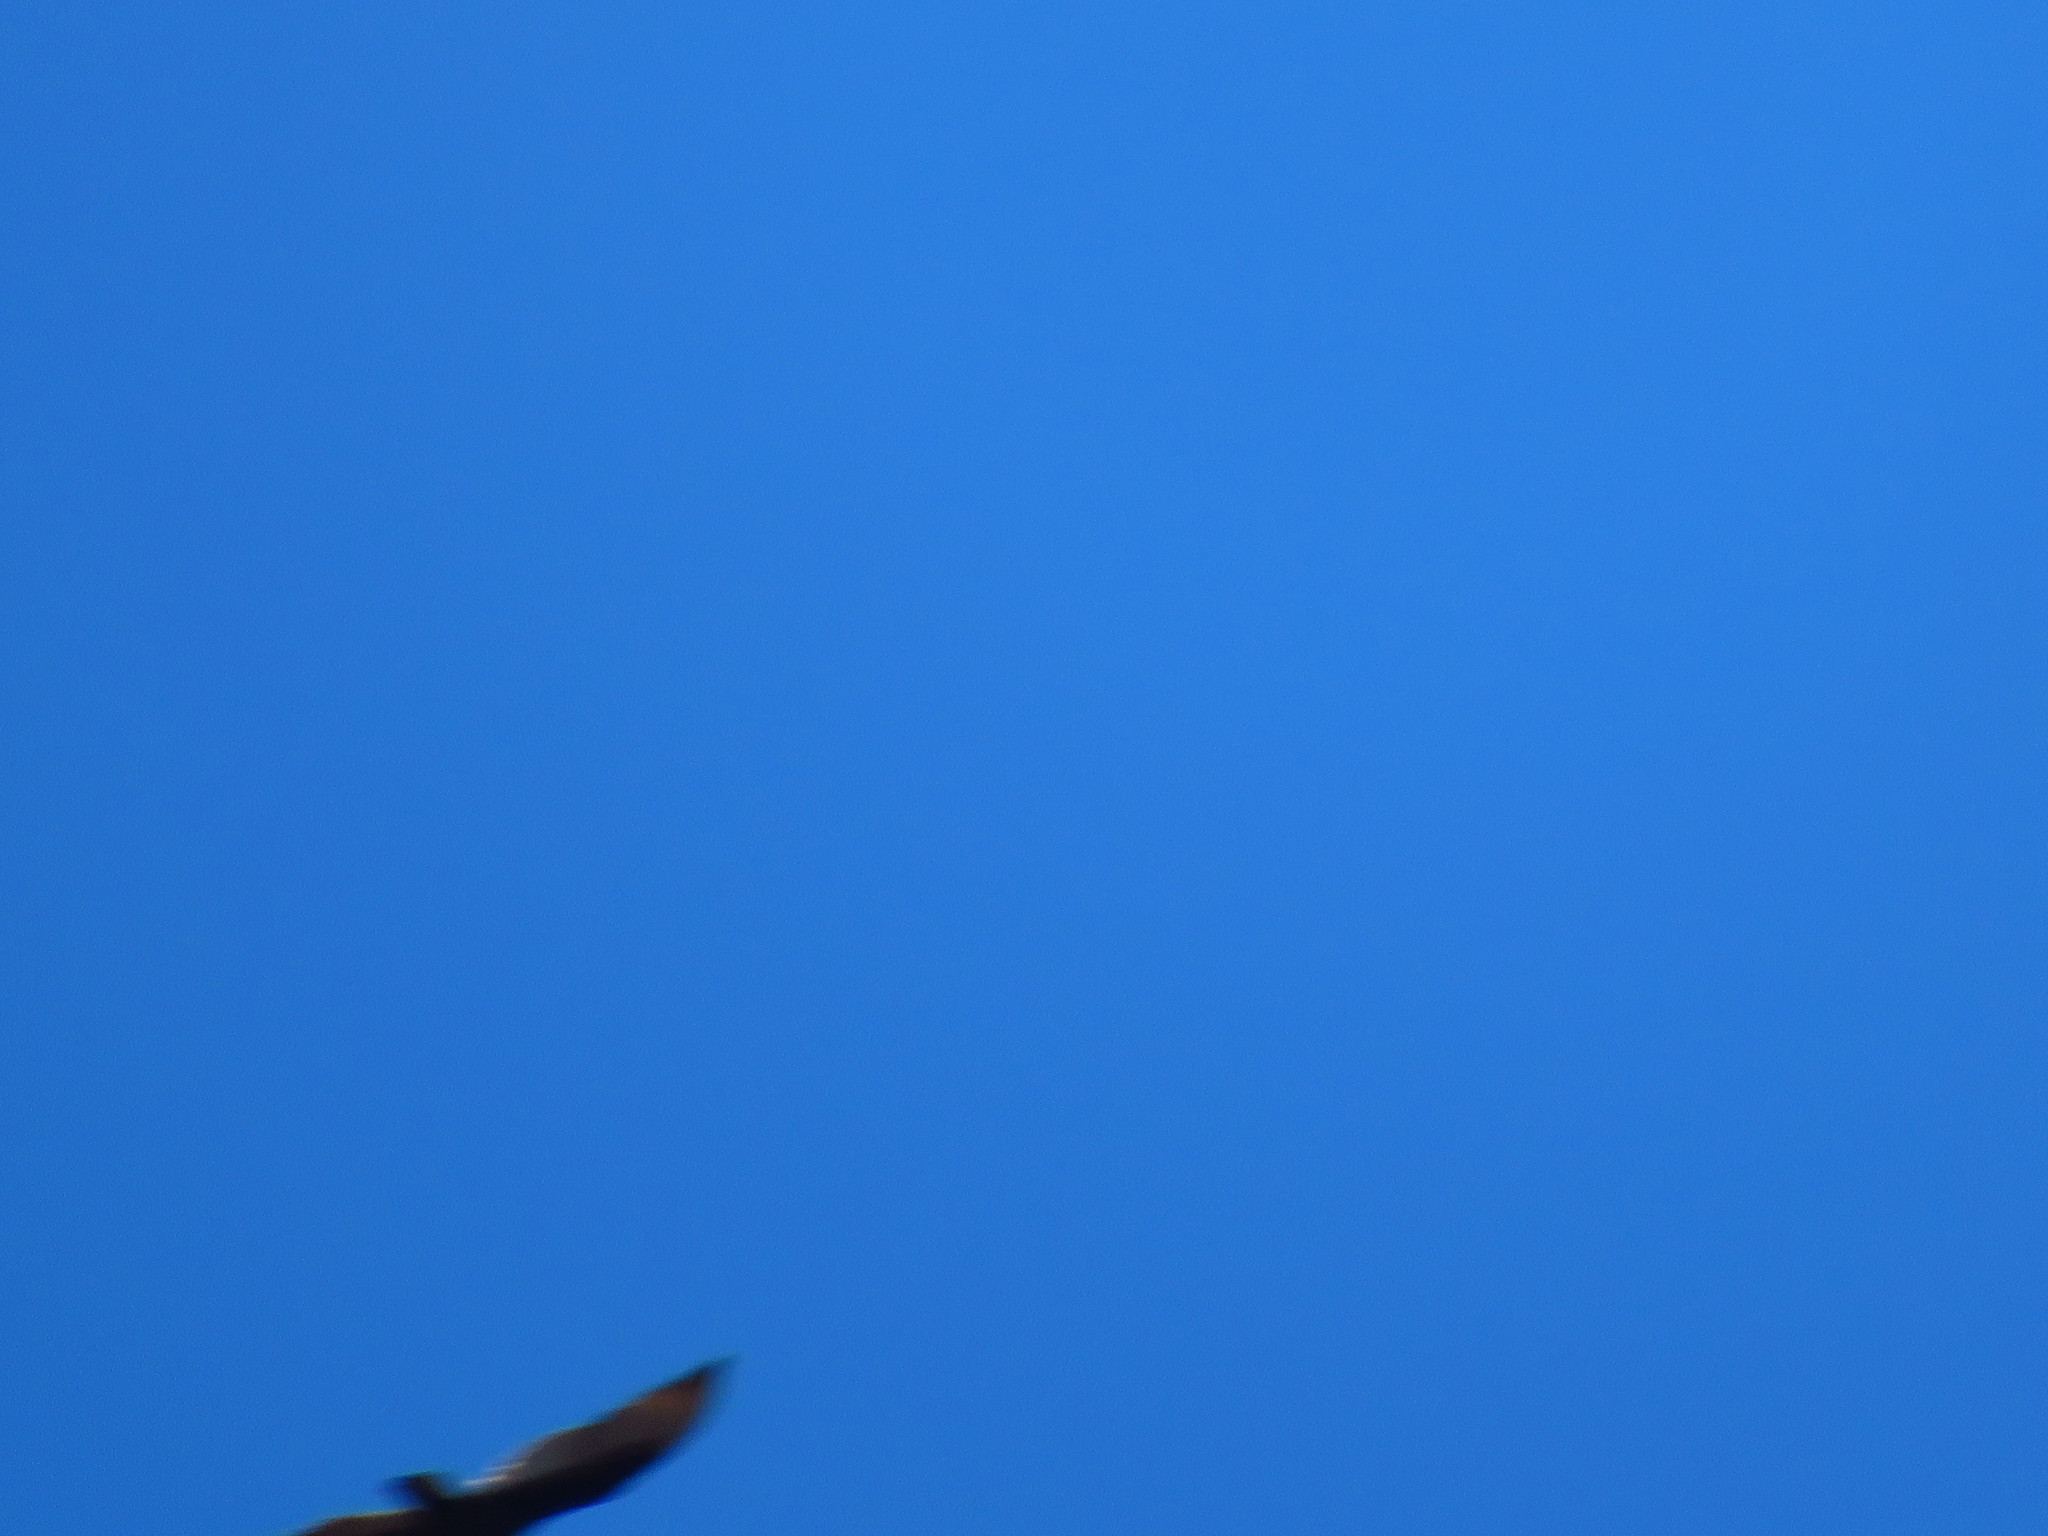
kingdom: Animalia
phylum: Chordata
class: Aves
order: Accipitriformes
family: Cathartidae
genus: Cathartes
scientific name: Cathartes aura
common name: Turkey vulture
